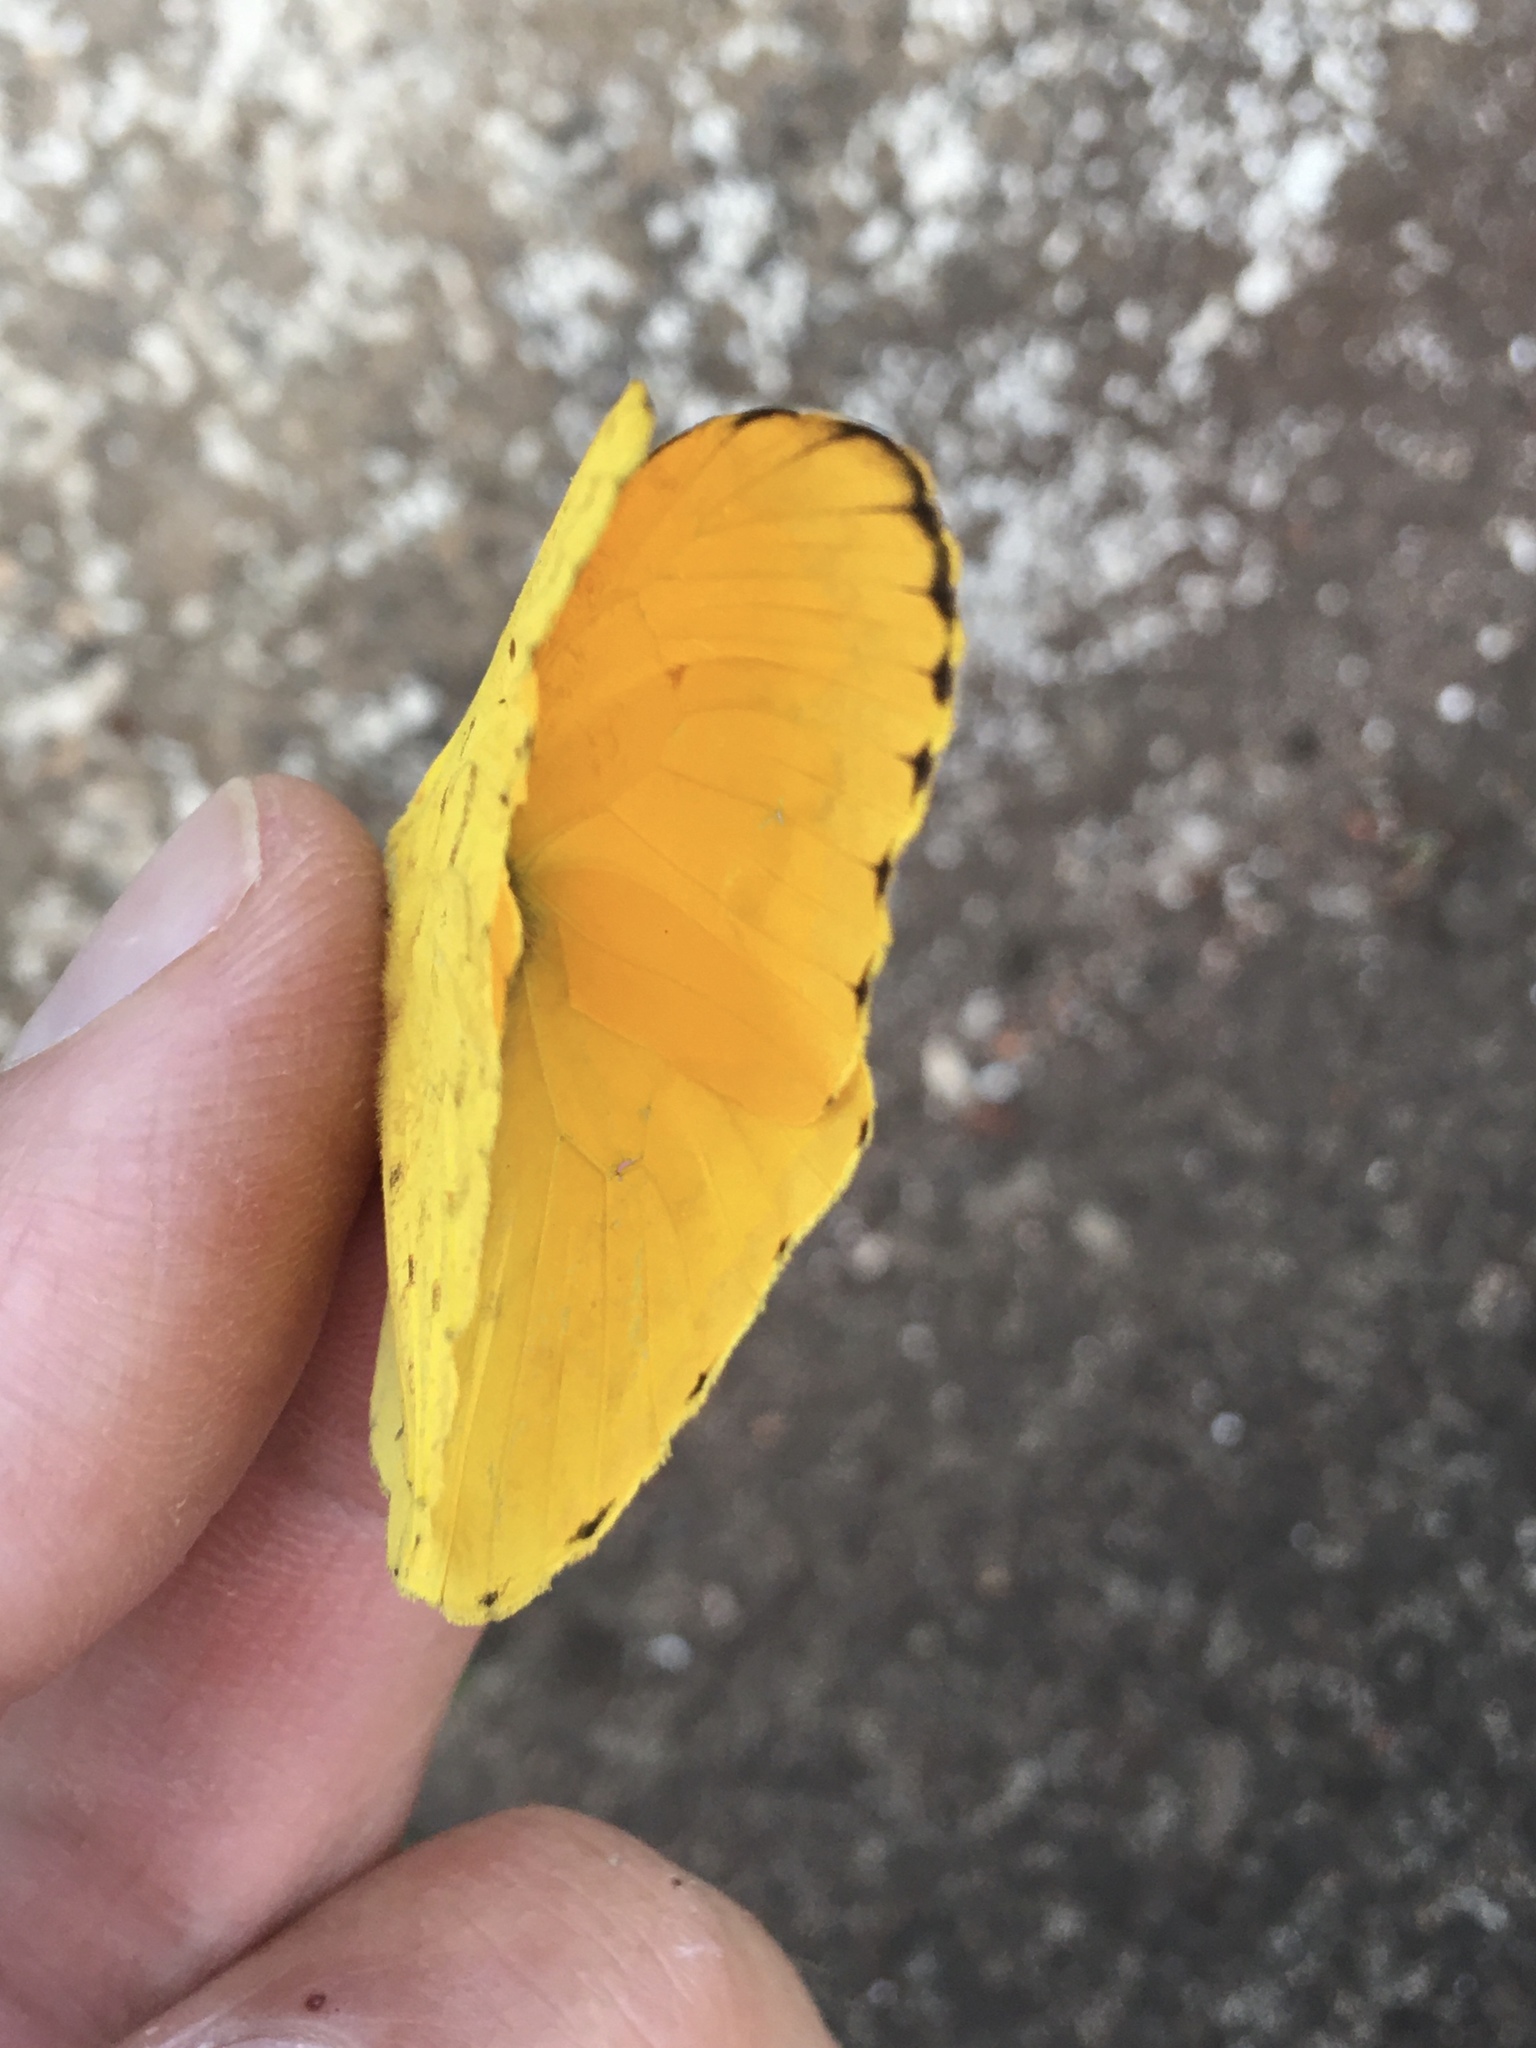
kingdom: Animalia
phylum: Arthropoda
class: Insecta
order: Lepidoptera
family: Pieridae
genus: Phoebis
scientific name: Phoebis argante
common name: Apricot sulphur
